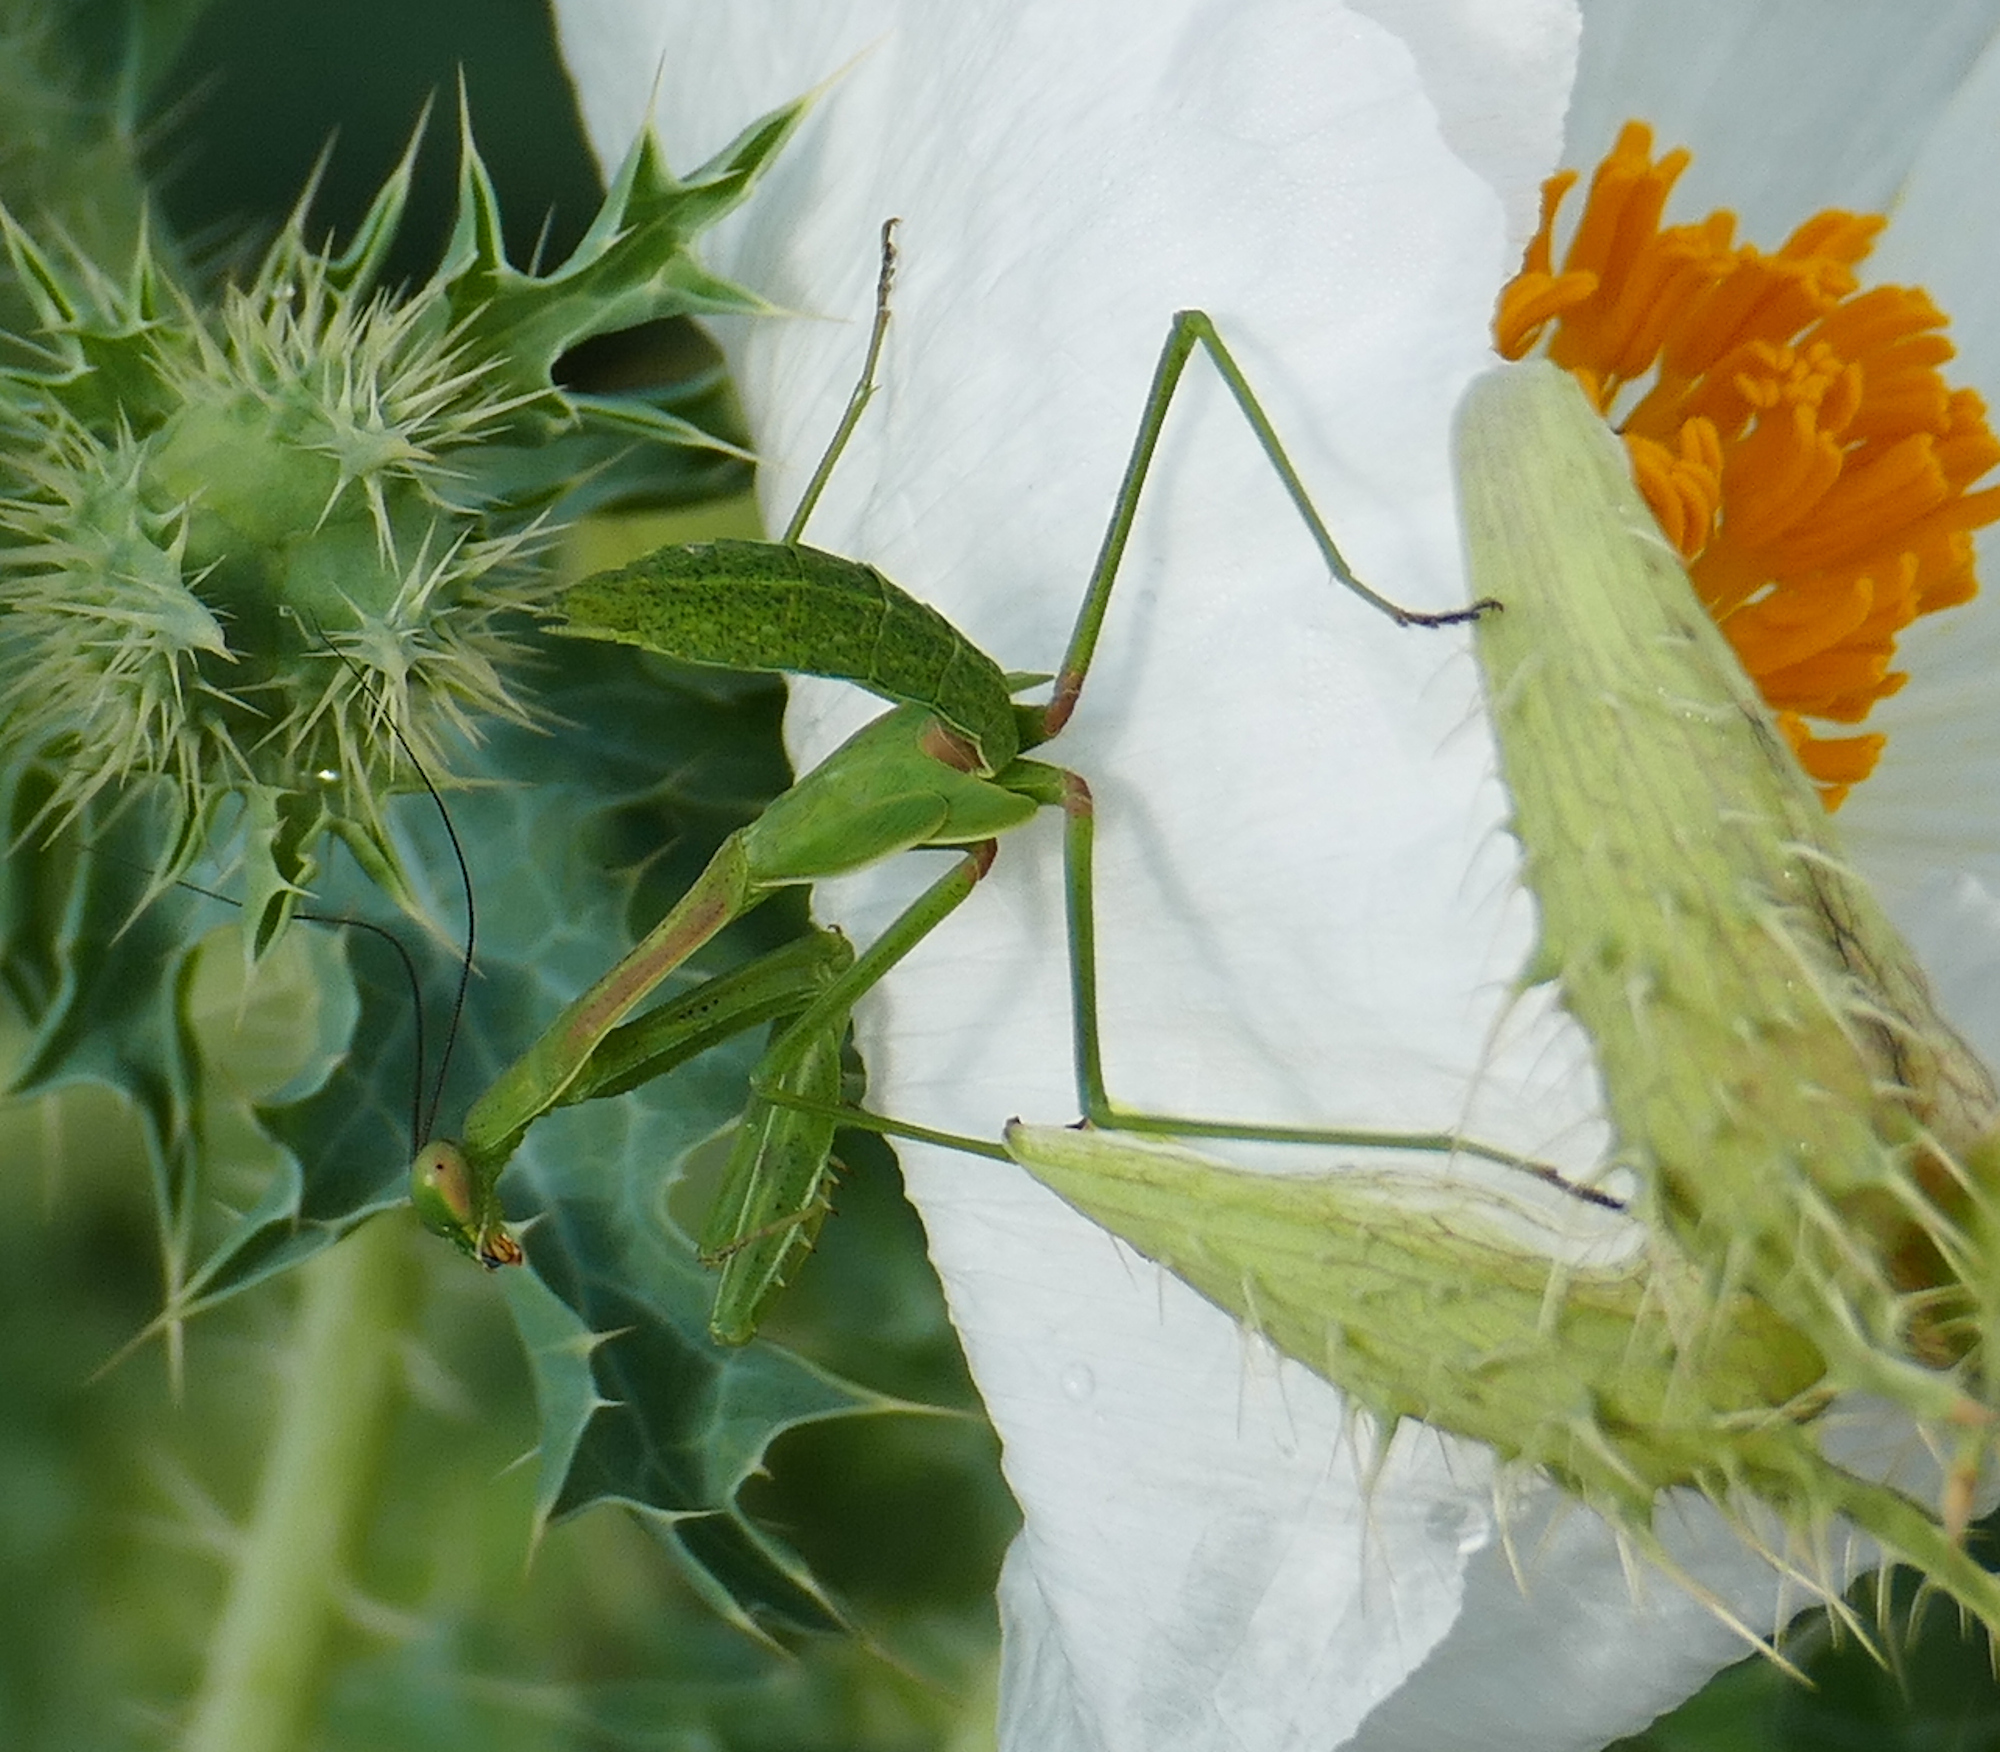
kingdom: Animalia
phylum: Arthropoda
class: Insecta
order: Mantodea
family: Mantidae
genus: Stagmomantis
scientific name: Stagmomantis limbata
